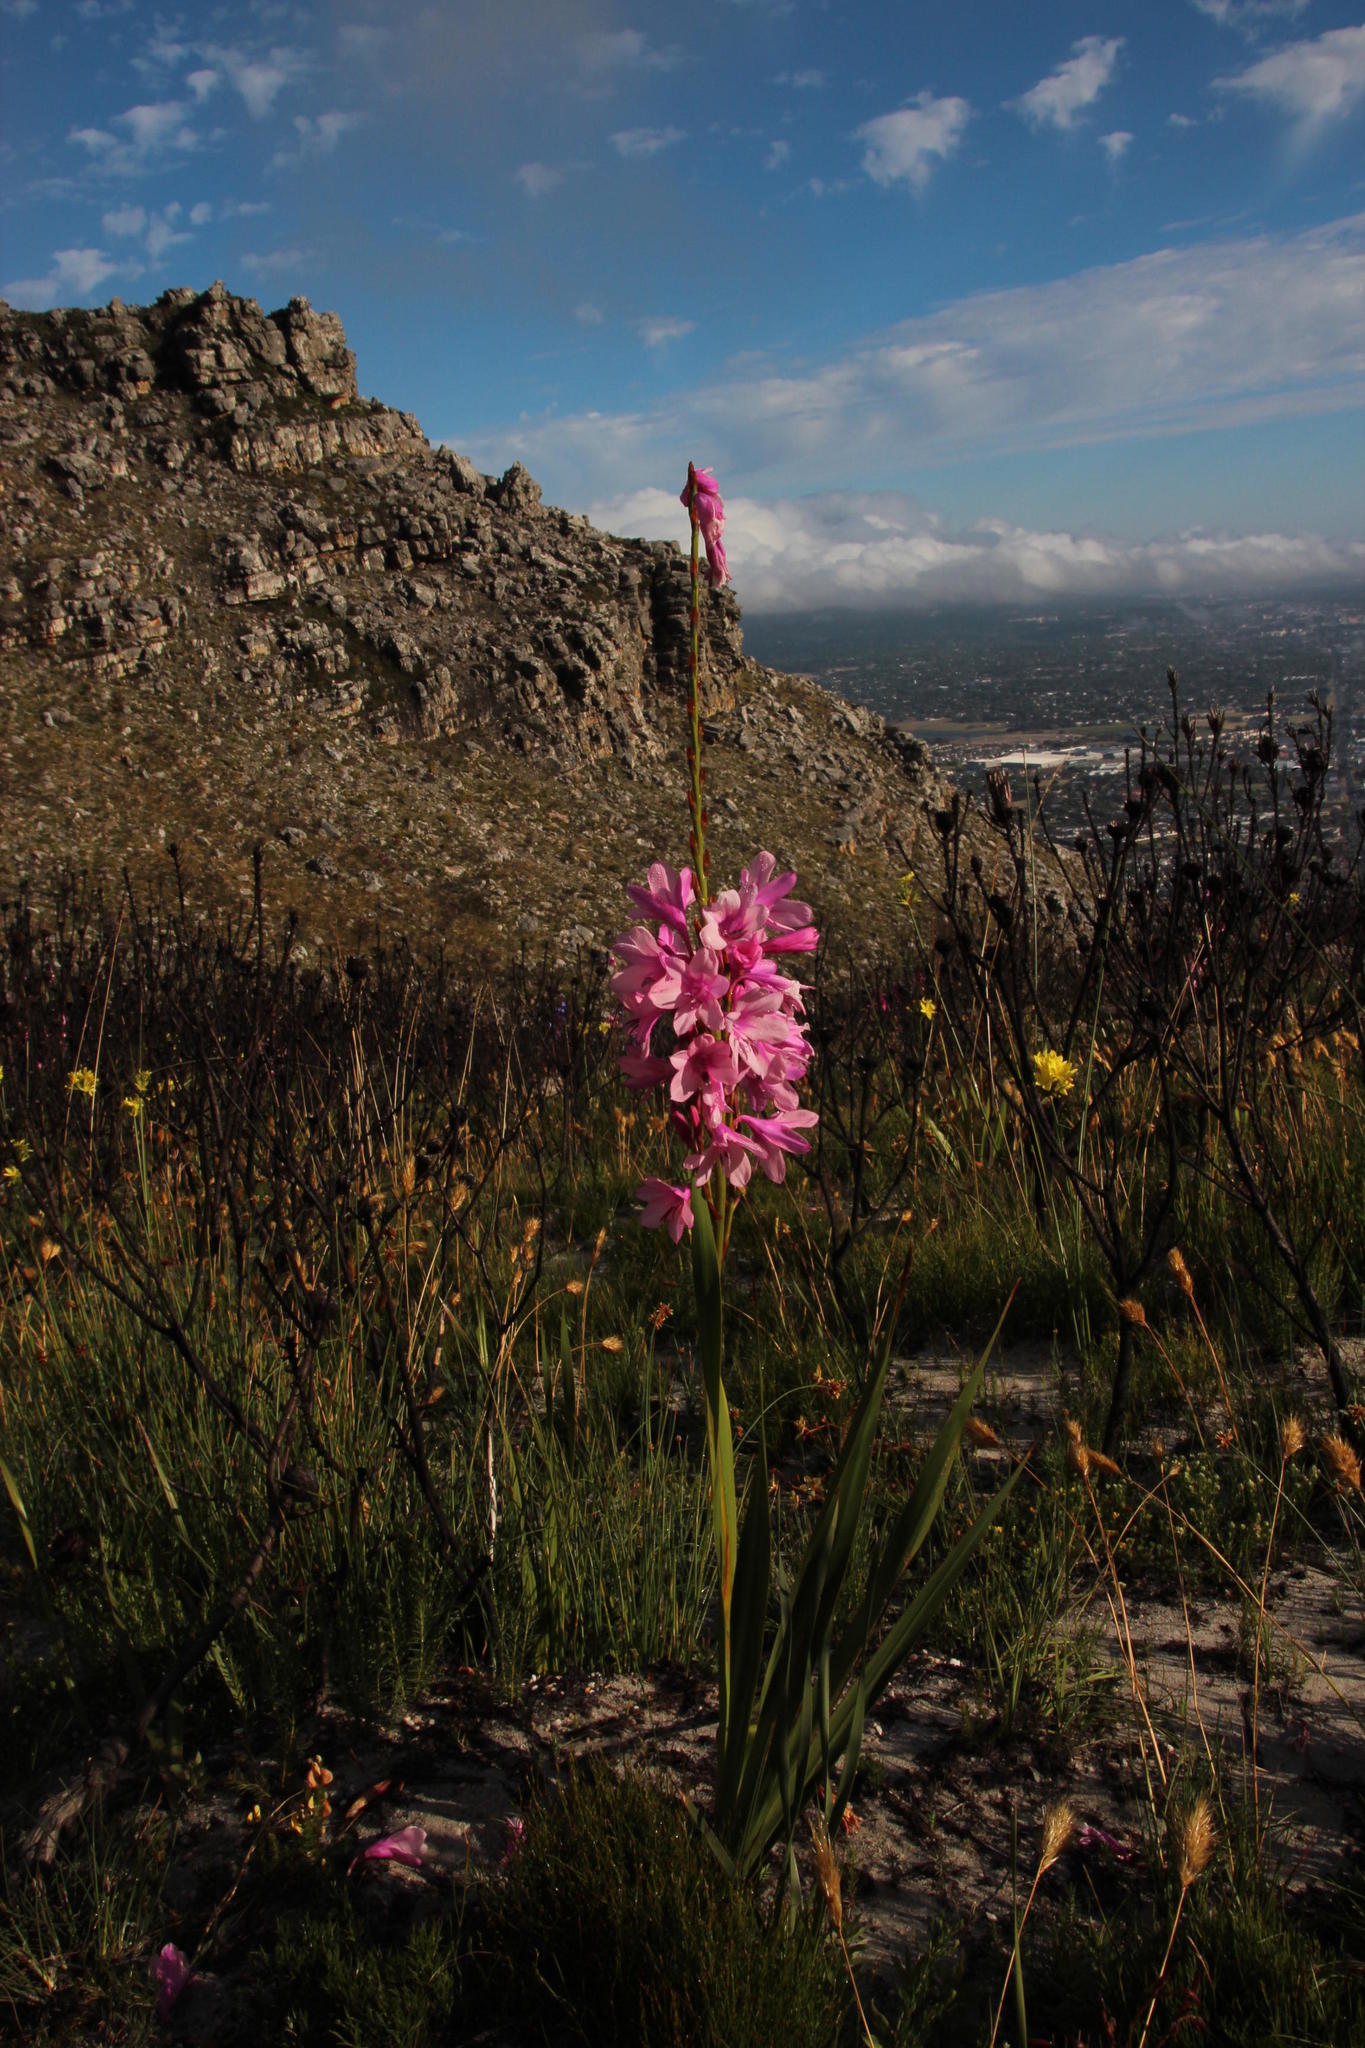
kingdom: Plantae
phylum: Tracheophyta
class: Liliopsida
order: Asparagales
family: Iridaceae
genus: Watsonia
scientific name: Watsonia borbonica
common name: Bugle-lily
